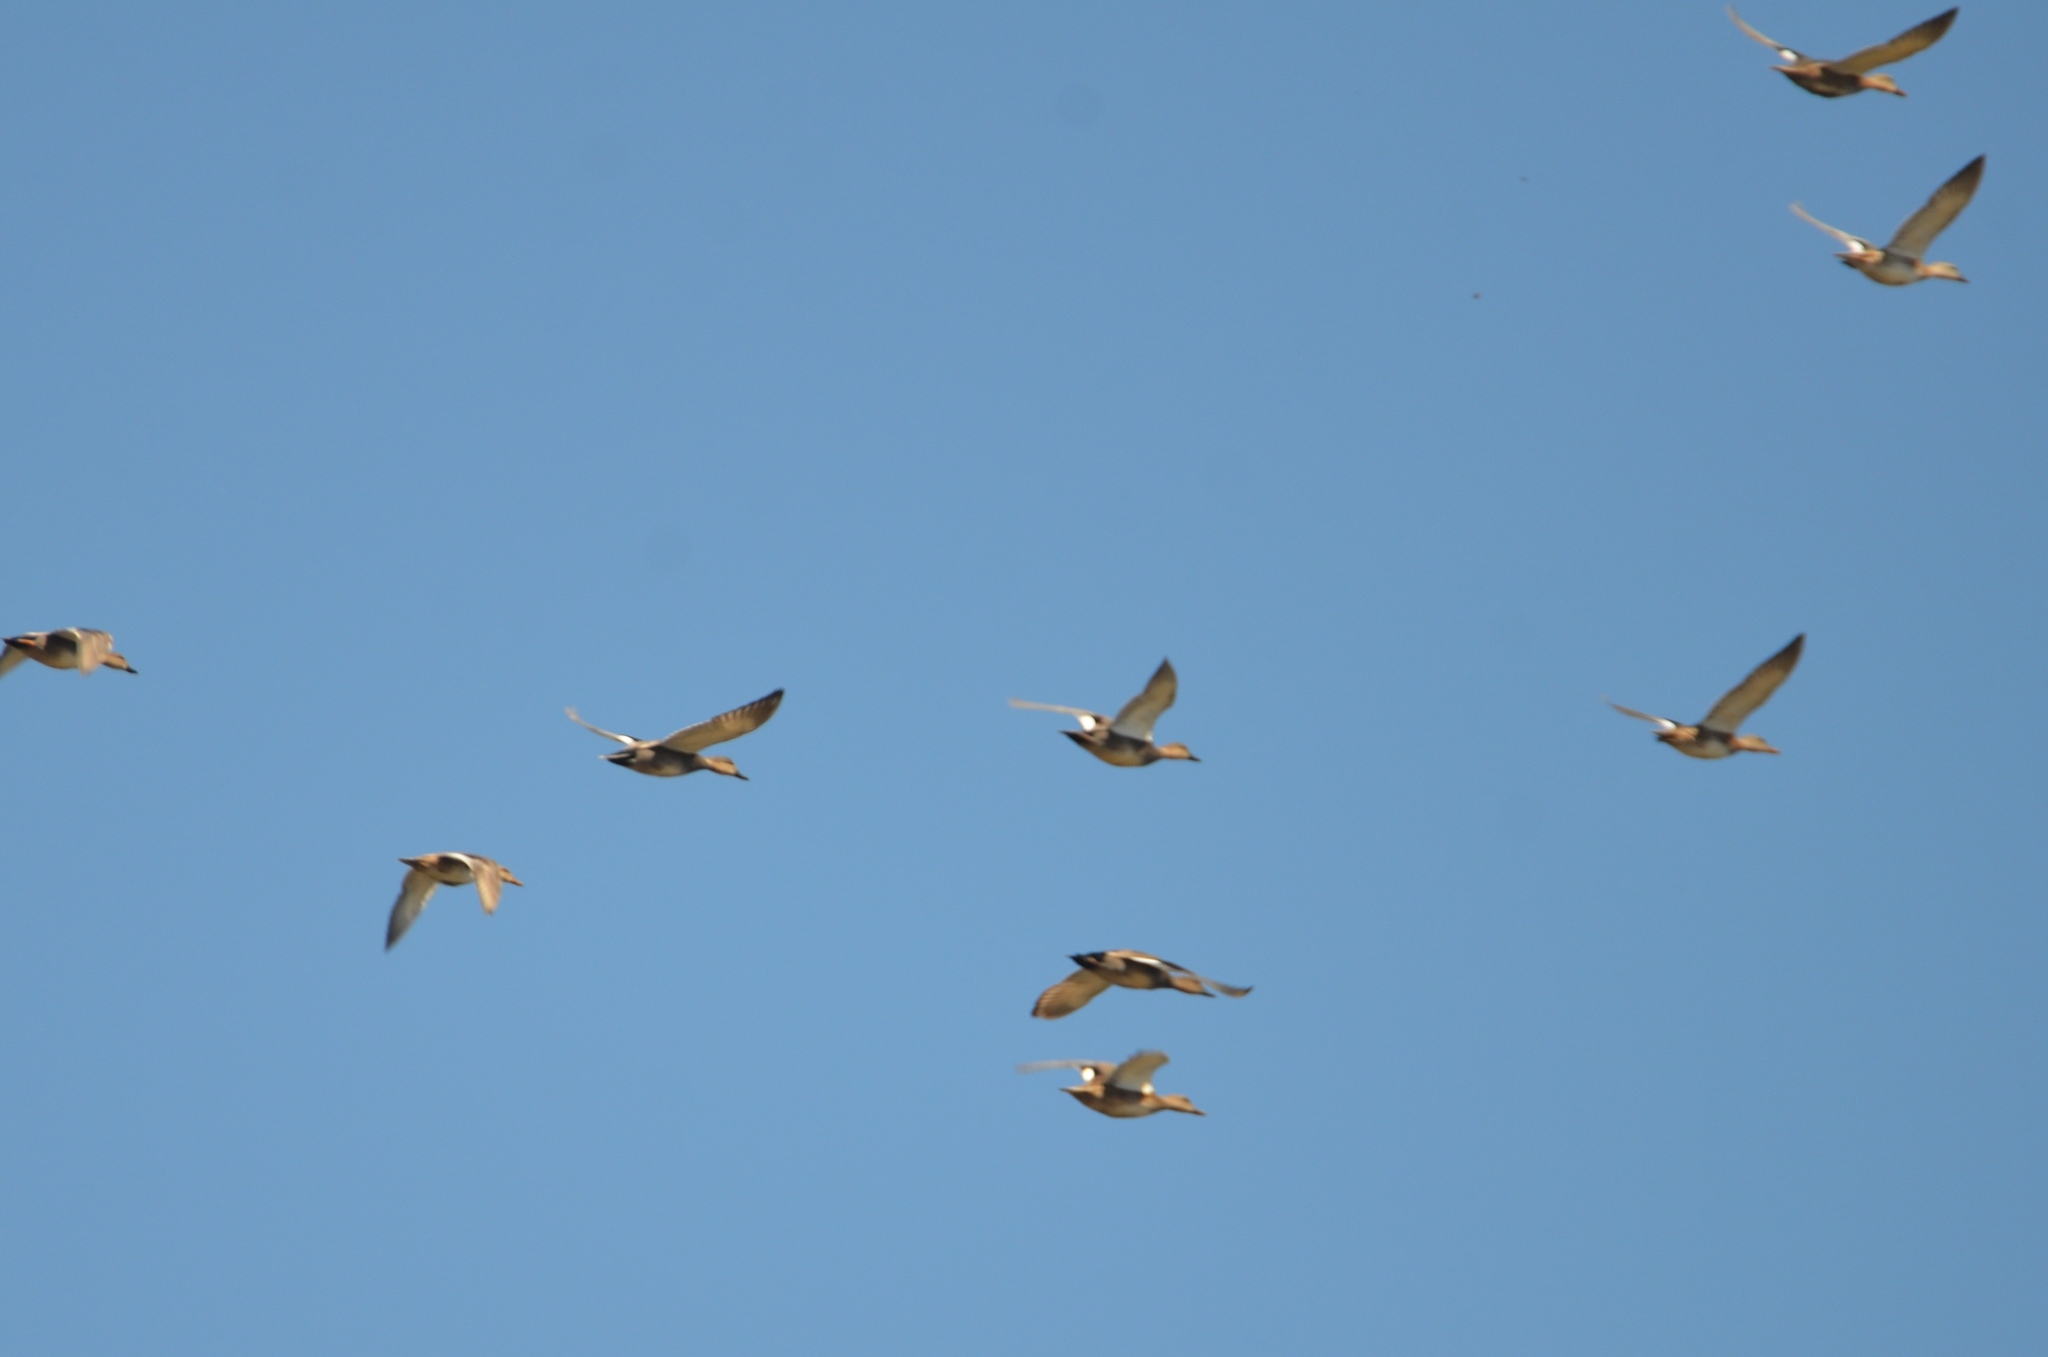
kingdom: Animalia
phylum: Chordata
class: Aves
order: Anseriformes
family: Anatidae
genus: Mareca
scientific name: Mareca strepera
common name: Gadwall
